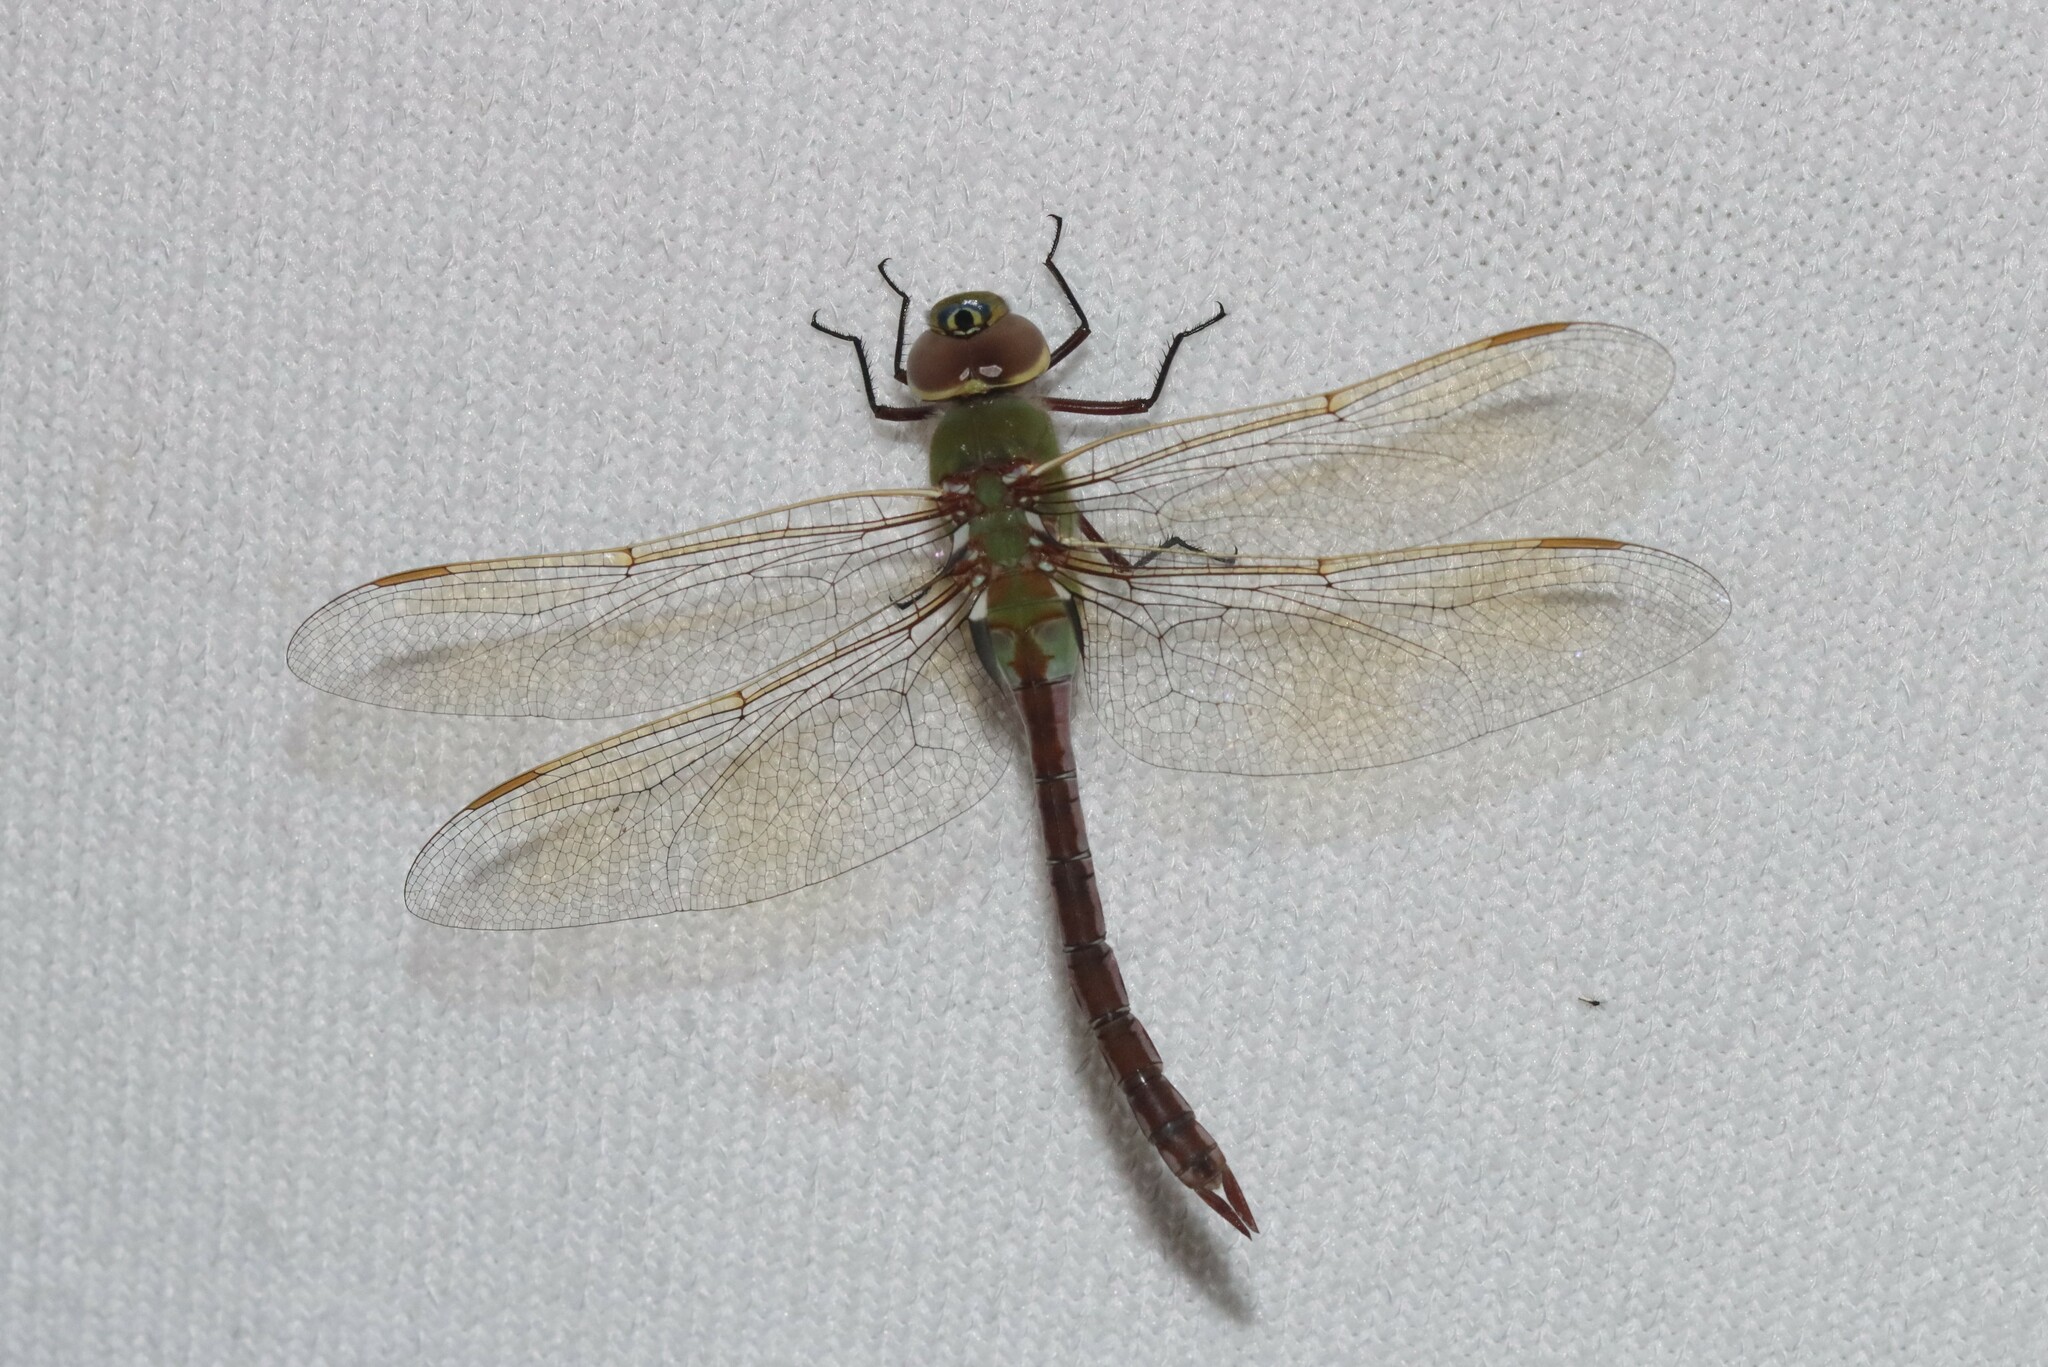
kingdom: Animalia
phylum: Arthropoda
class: Insecta
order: Odonata
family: Aeshnidae
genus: Anax
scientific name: Anax junius
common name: Common green darner
